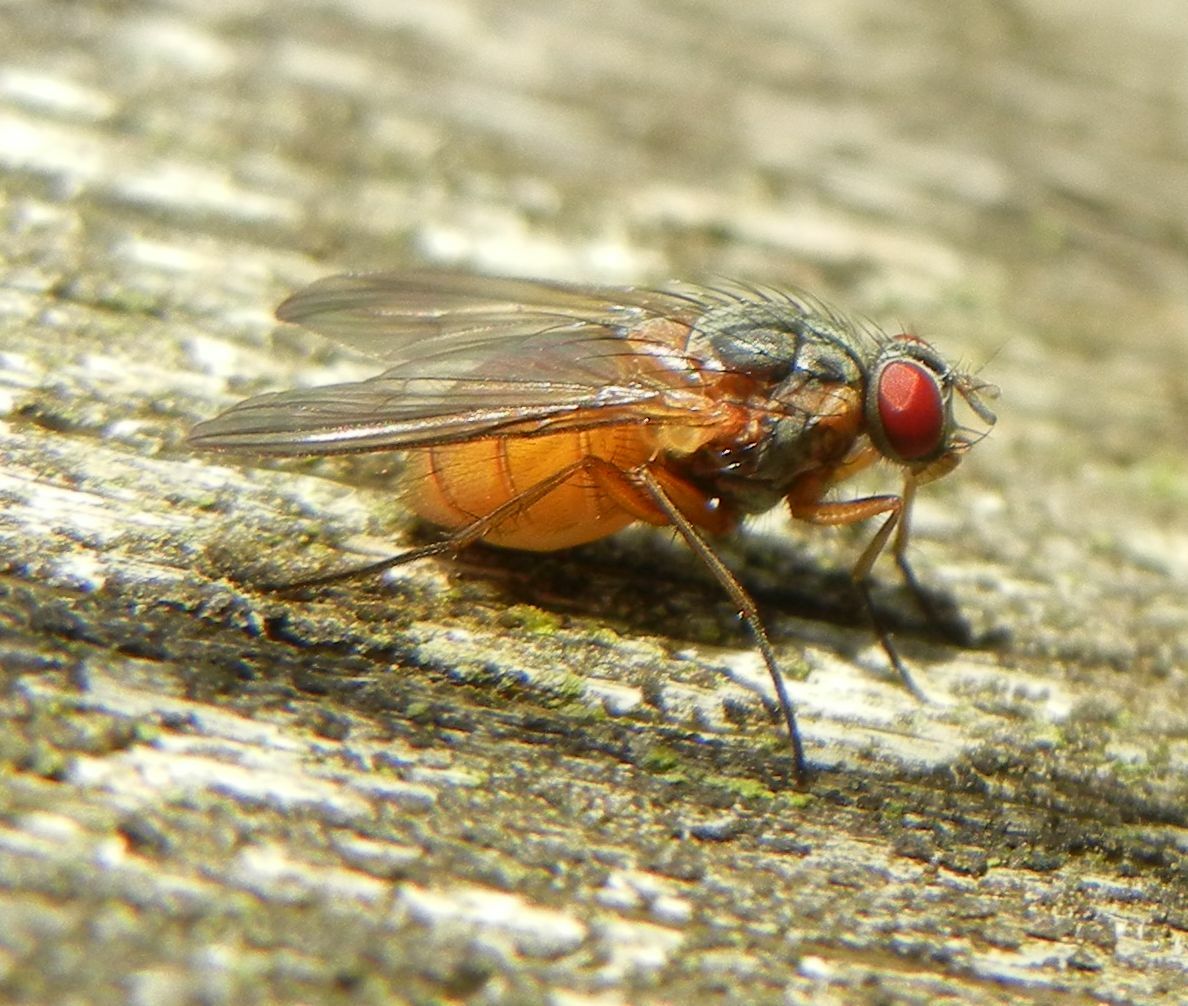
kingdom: Animalia
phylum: Arthropoda
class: Insecta
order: Diptera
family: Muscidae
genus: Phaonia
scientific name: Phaonia rufiventris
